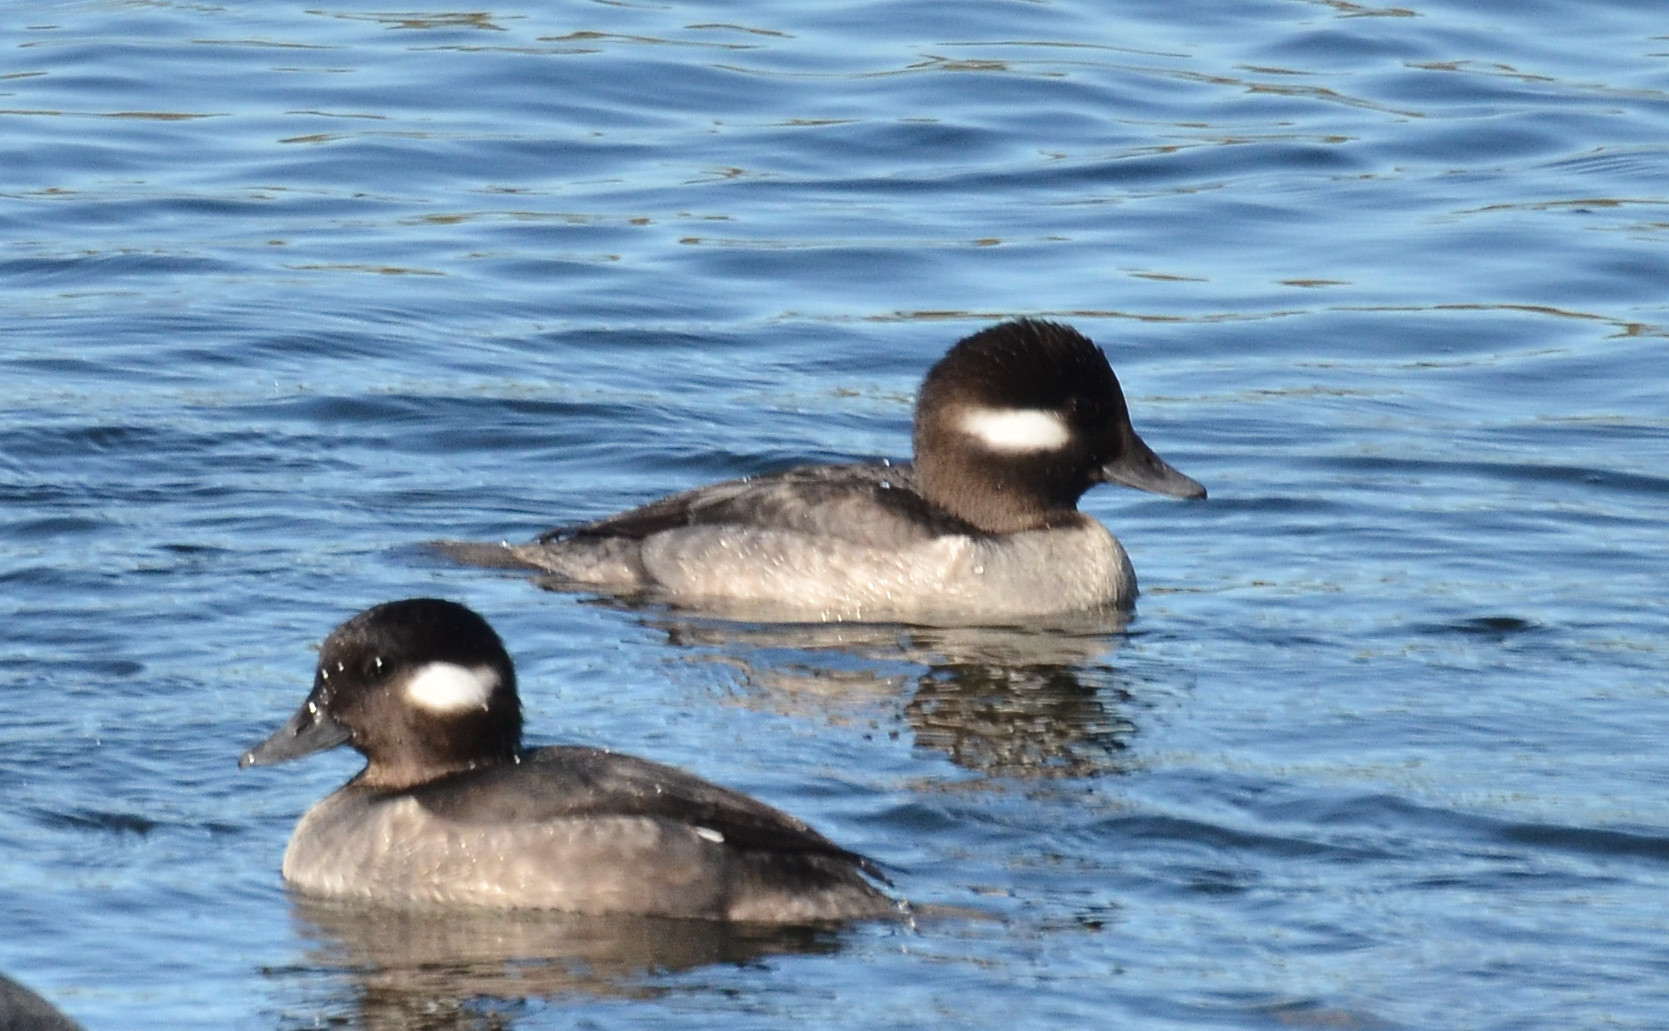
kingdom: Animalia
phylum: Chordata
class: Aves
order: Anseriformes
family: Anatidae
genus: Bucephala
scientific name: Bucephala albeola
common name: Bufflehead
